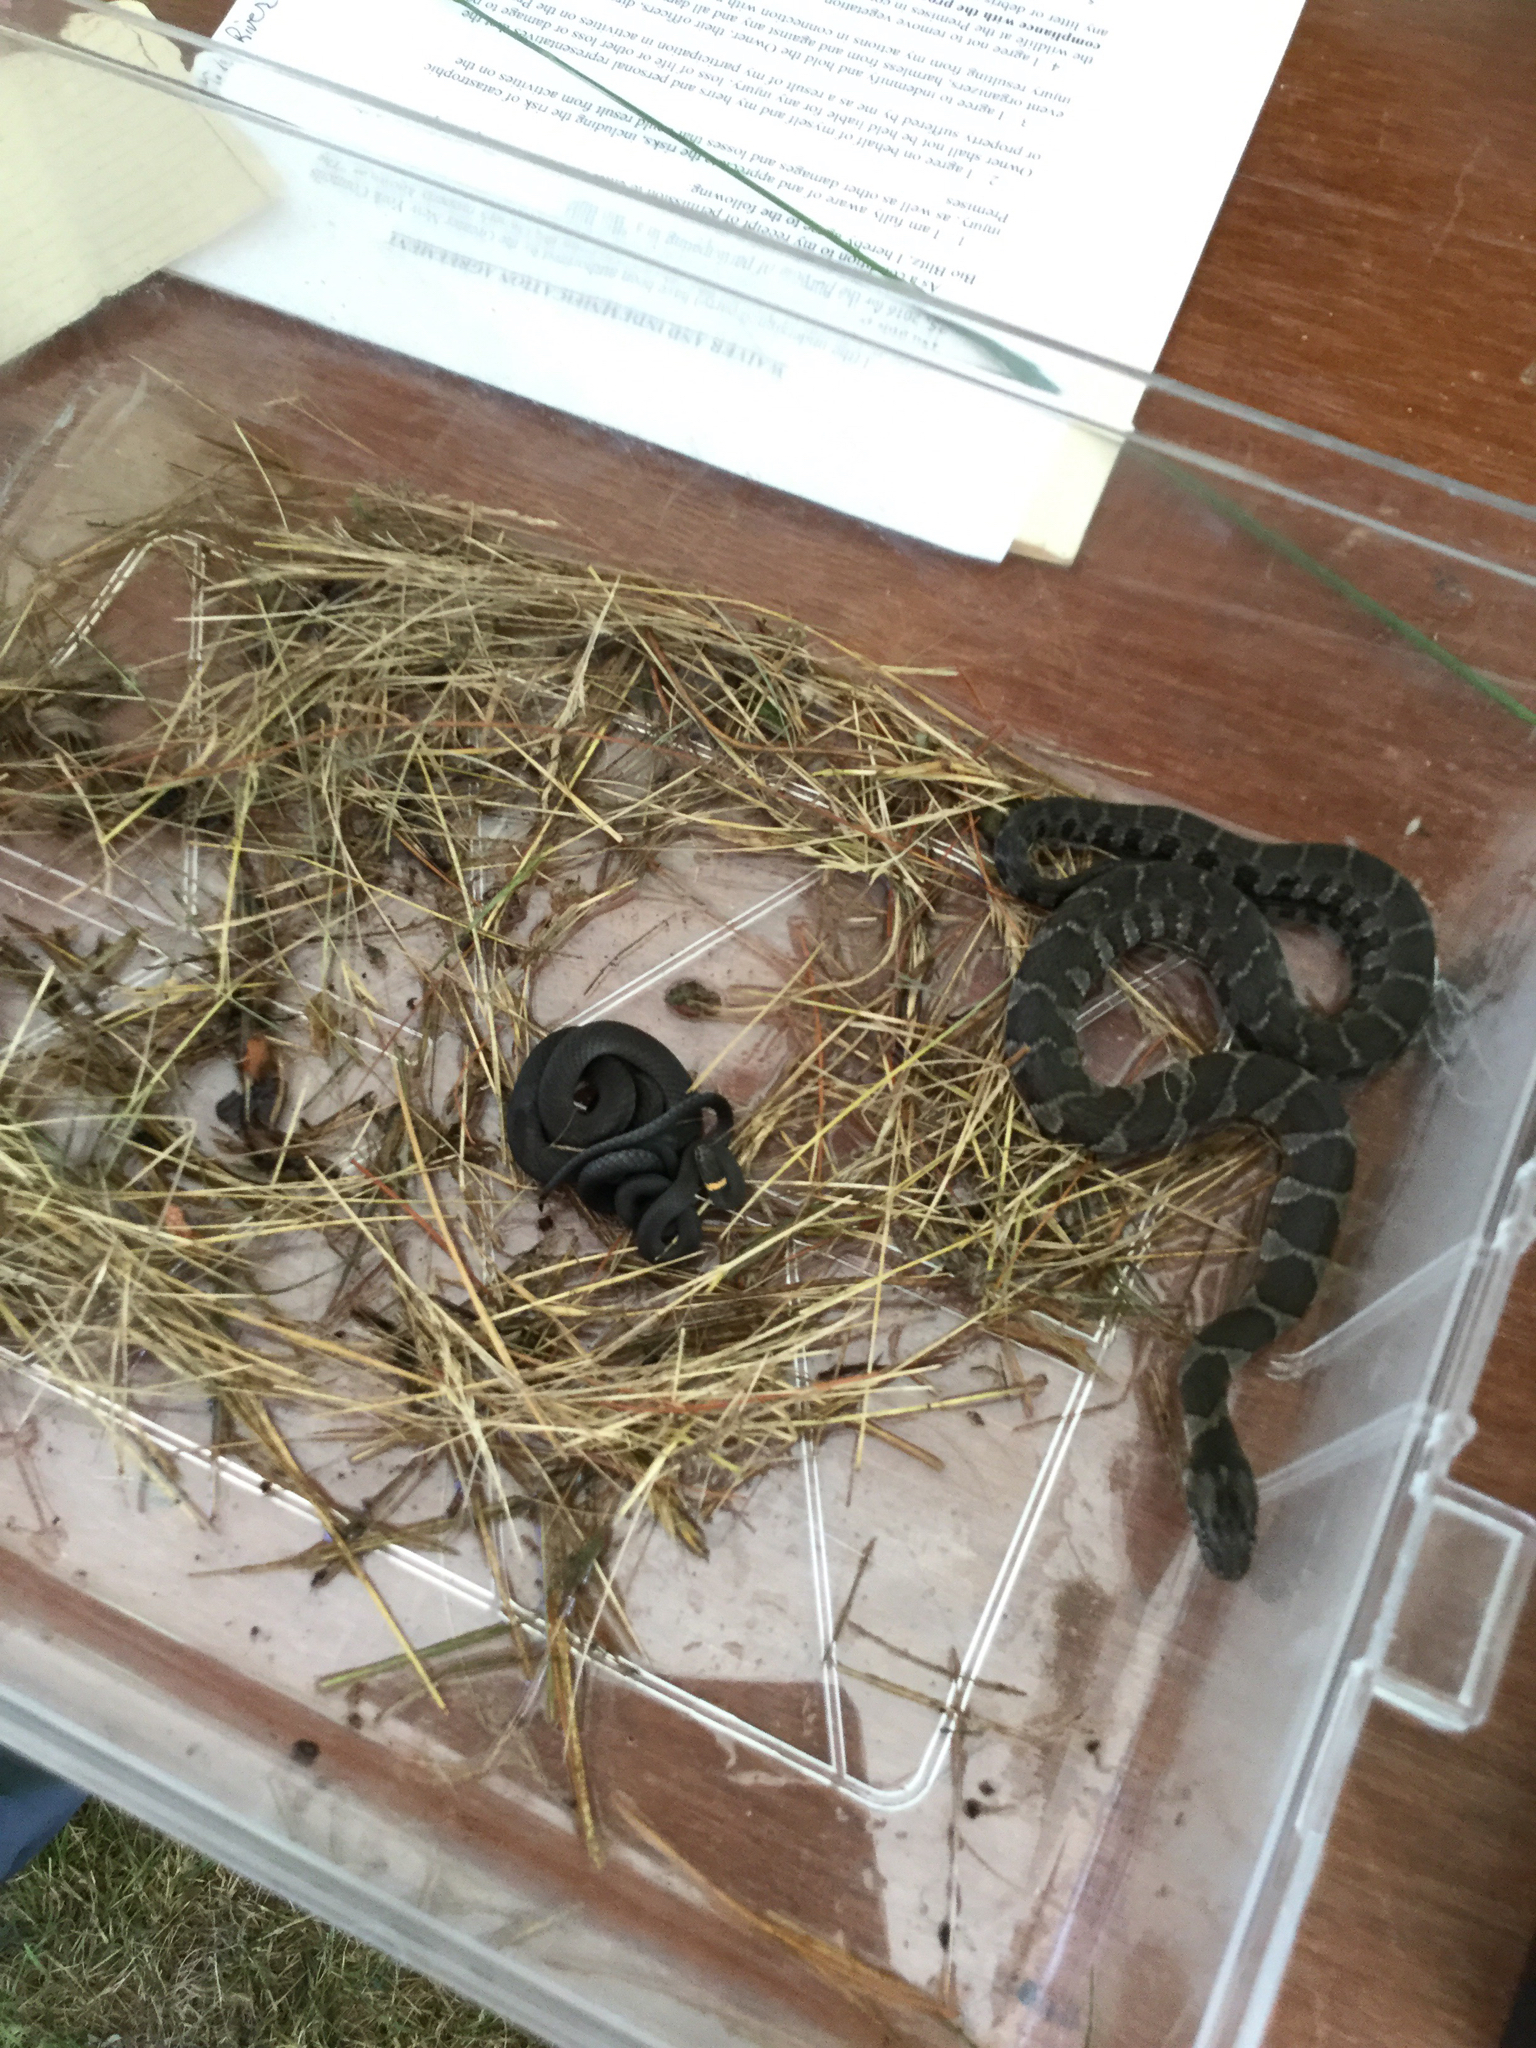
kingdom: Animalia
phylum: Chordata
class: Squamata
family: Colubridae
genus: Diadophis
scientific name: Diadophis punctatus
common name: Ringneck snake
